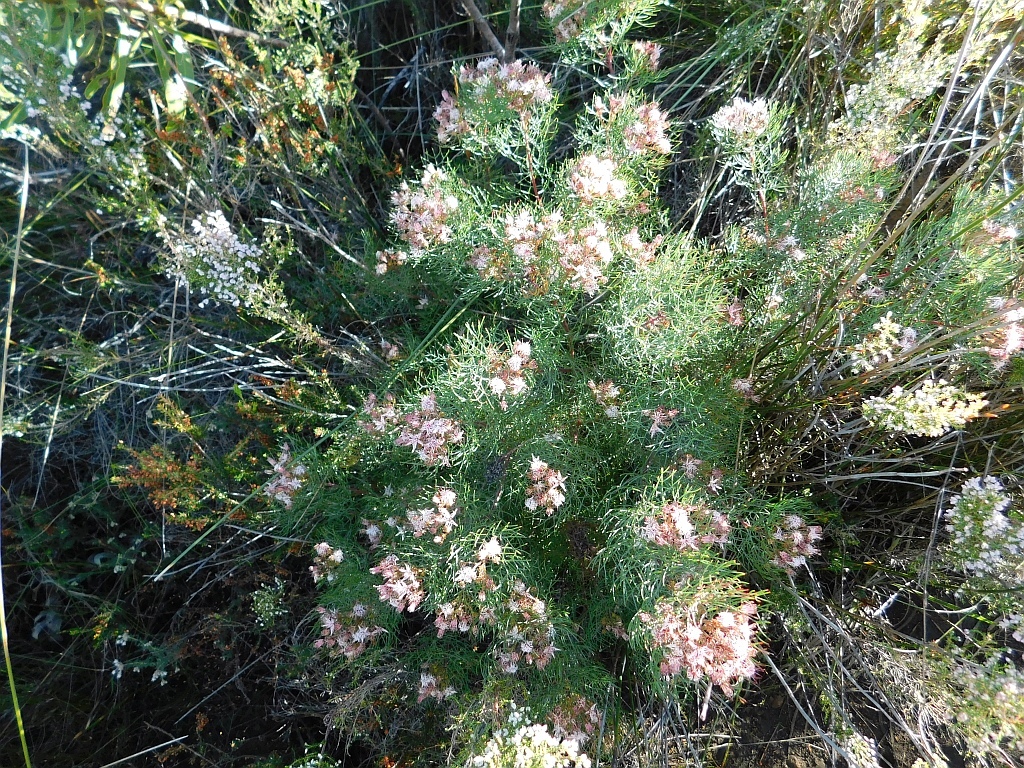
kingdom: Plantae
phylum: Tracheophyta
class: Magnoliopsida
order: Proteales
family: Proteaceae
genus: Serruria
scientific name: Serruria fasciflora
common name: Common pin spiderhead
